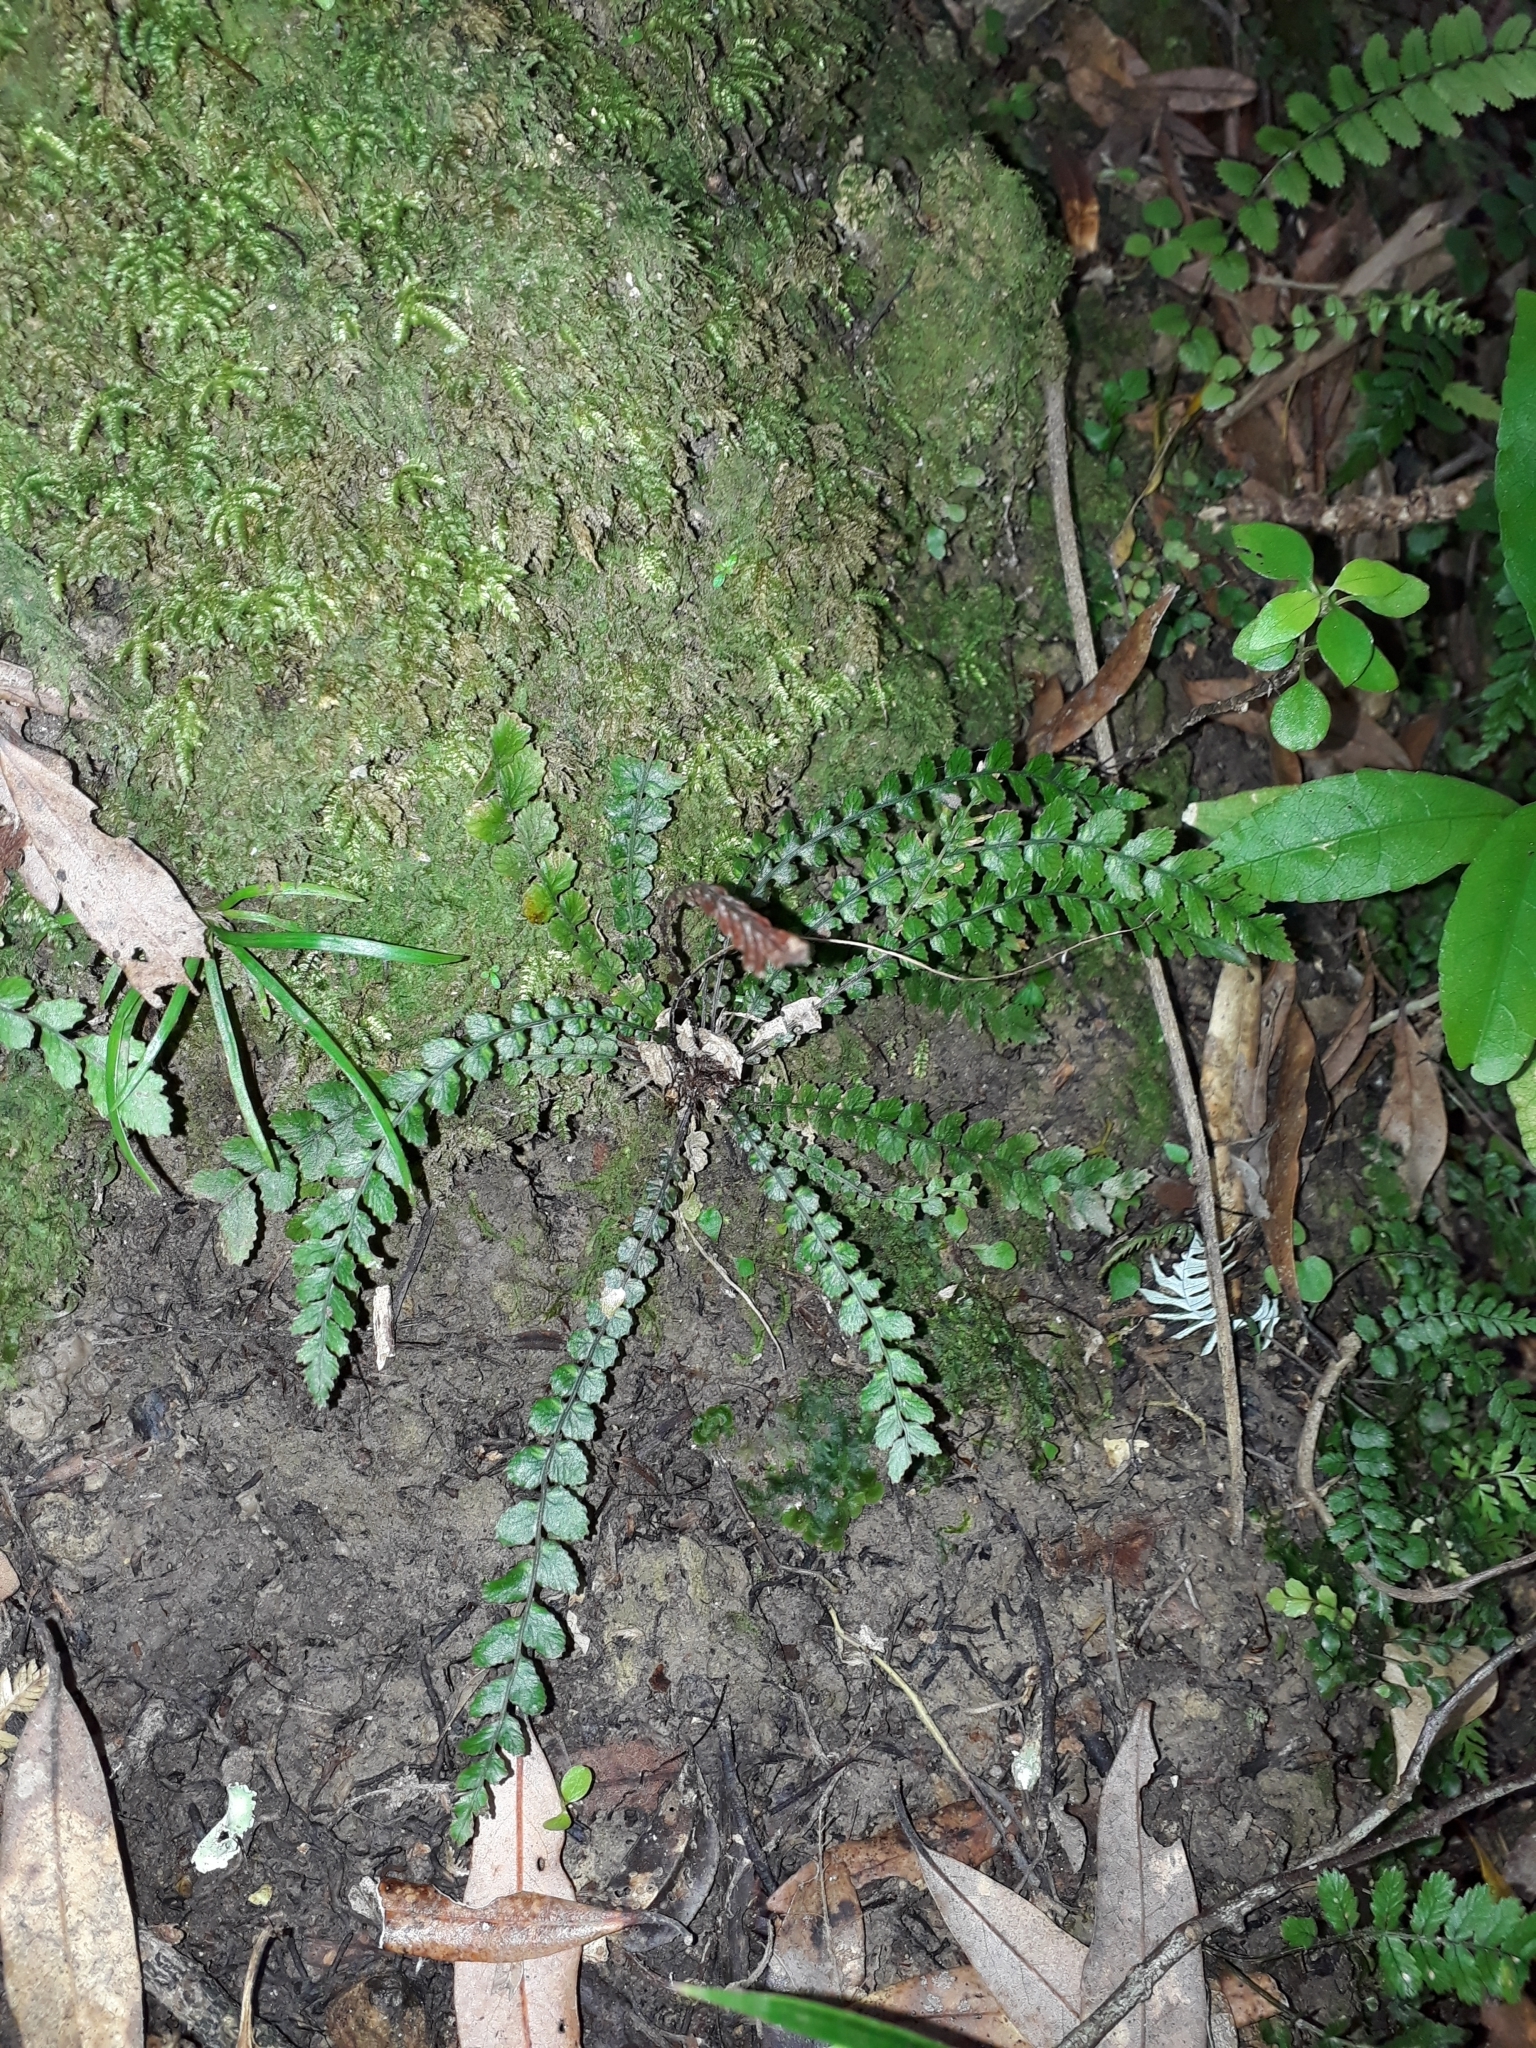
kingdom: Plantae
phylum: Tracheophyta
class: Polypodiopsida
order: Polypodiales
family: Blechnaceae
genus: Austroblechnum
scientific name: Austroblechnum membranaceum
